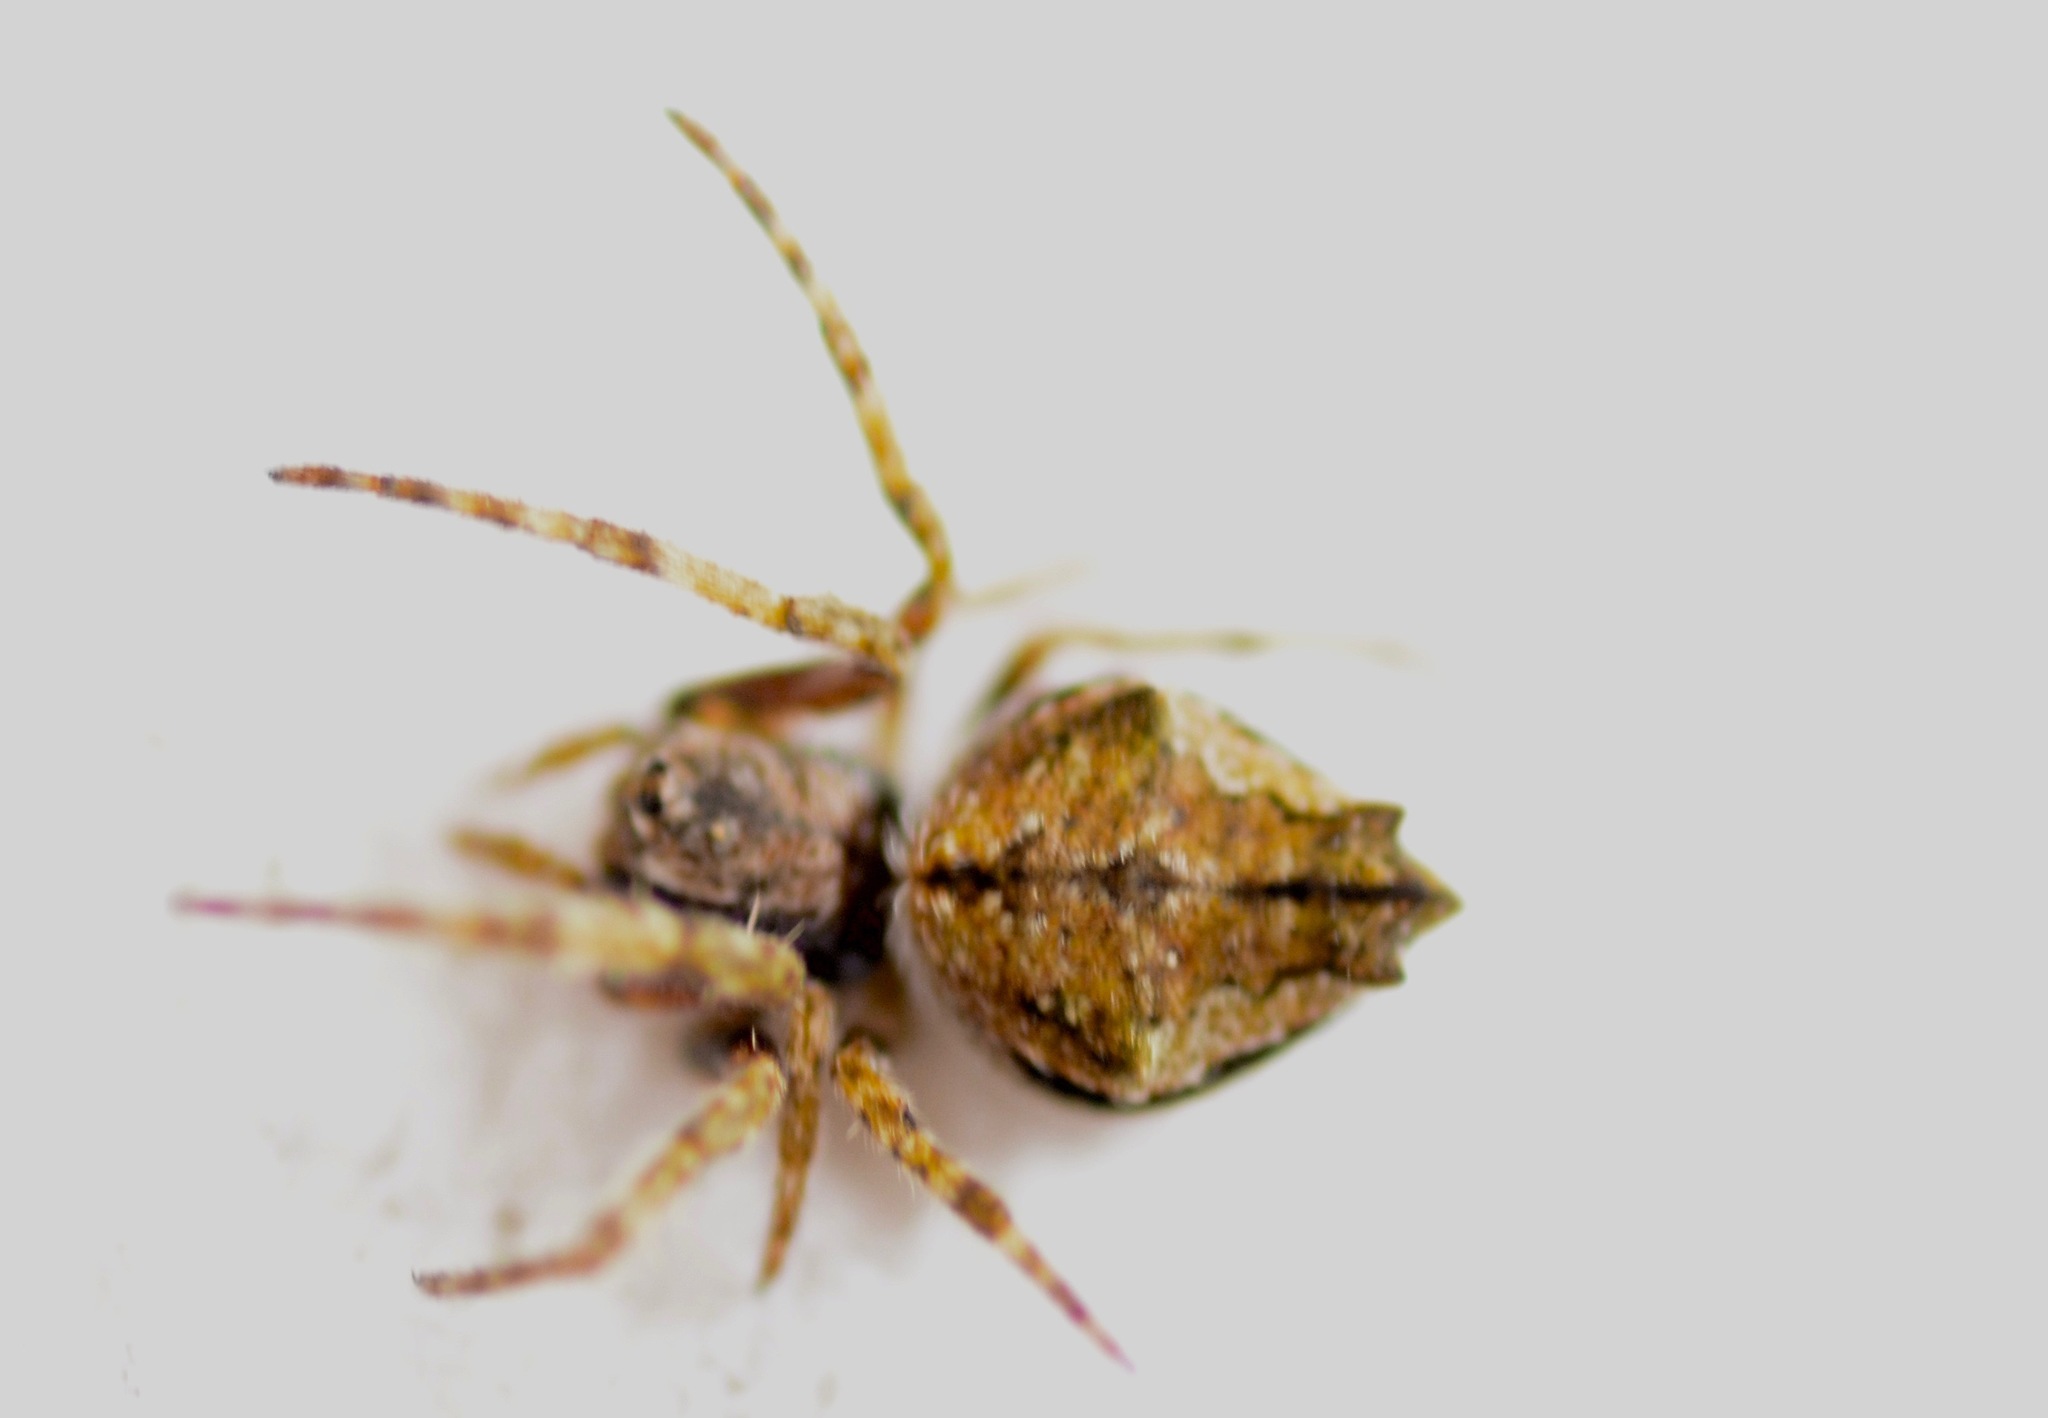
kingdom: Animalia
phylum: Arthropoda
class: Arachnida
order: Araneae
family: Araneidae
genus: Eriophora
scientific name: Eriophora pustulosa
